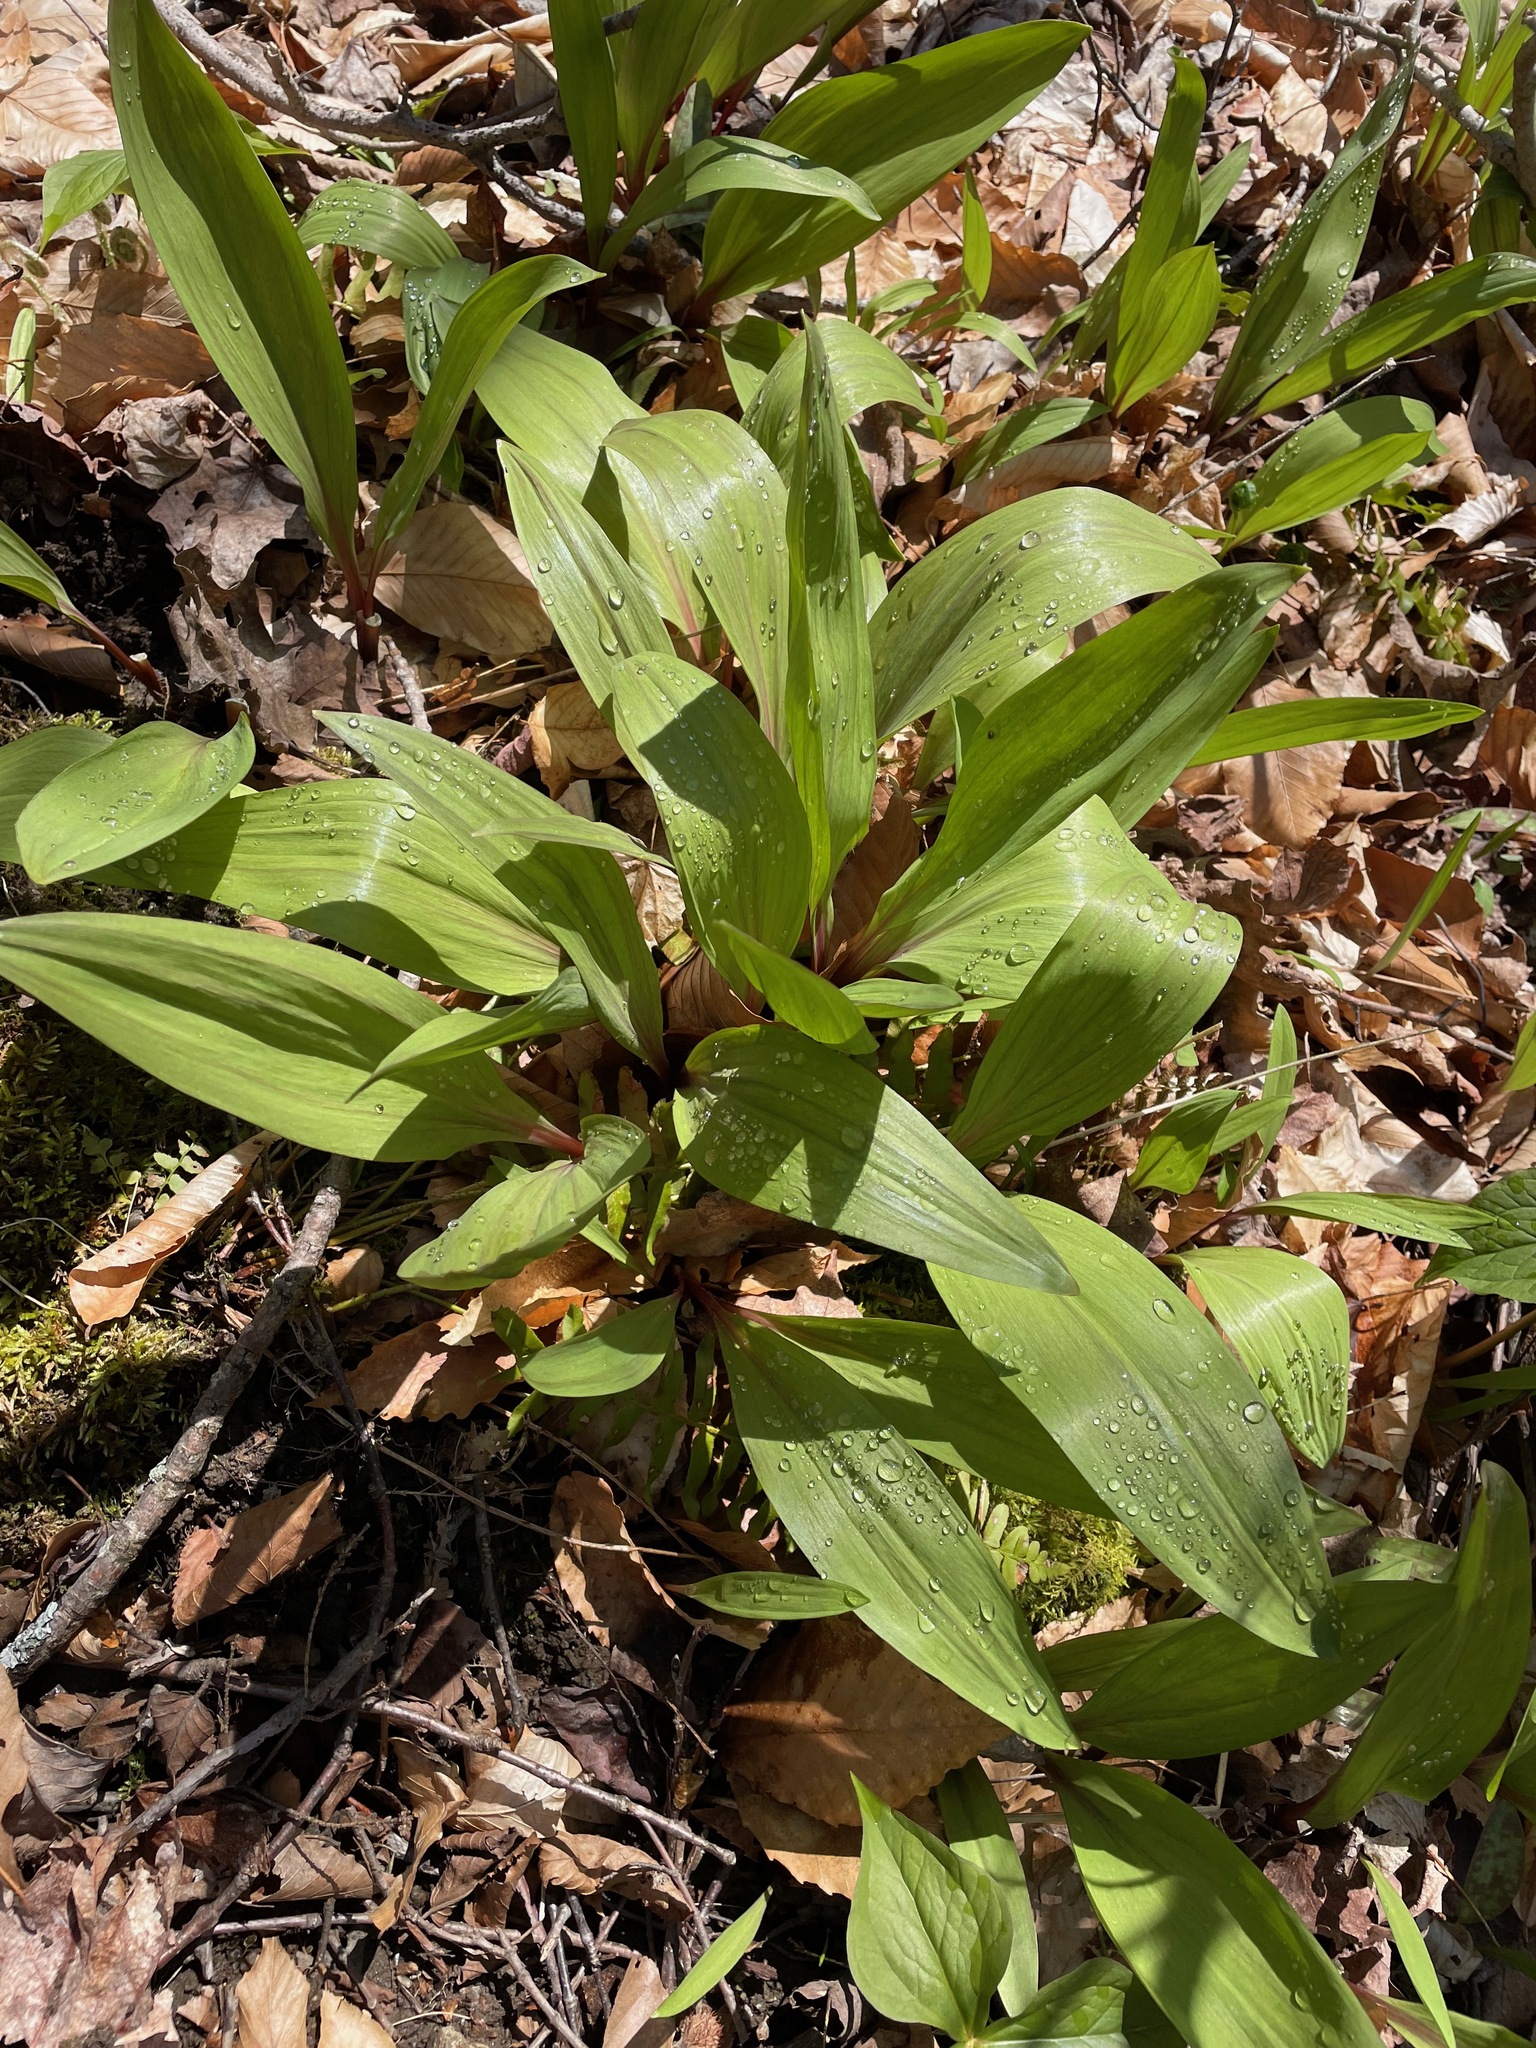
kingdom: Plantae
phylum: Tracheophyta
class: Liliopsida
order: Asparagales
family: Amaryllidaceae
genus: Allium
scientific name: Allium tricoccum
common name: Ramp
